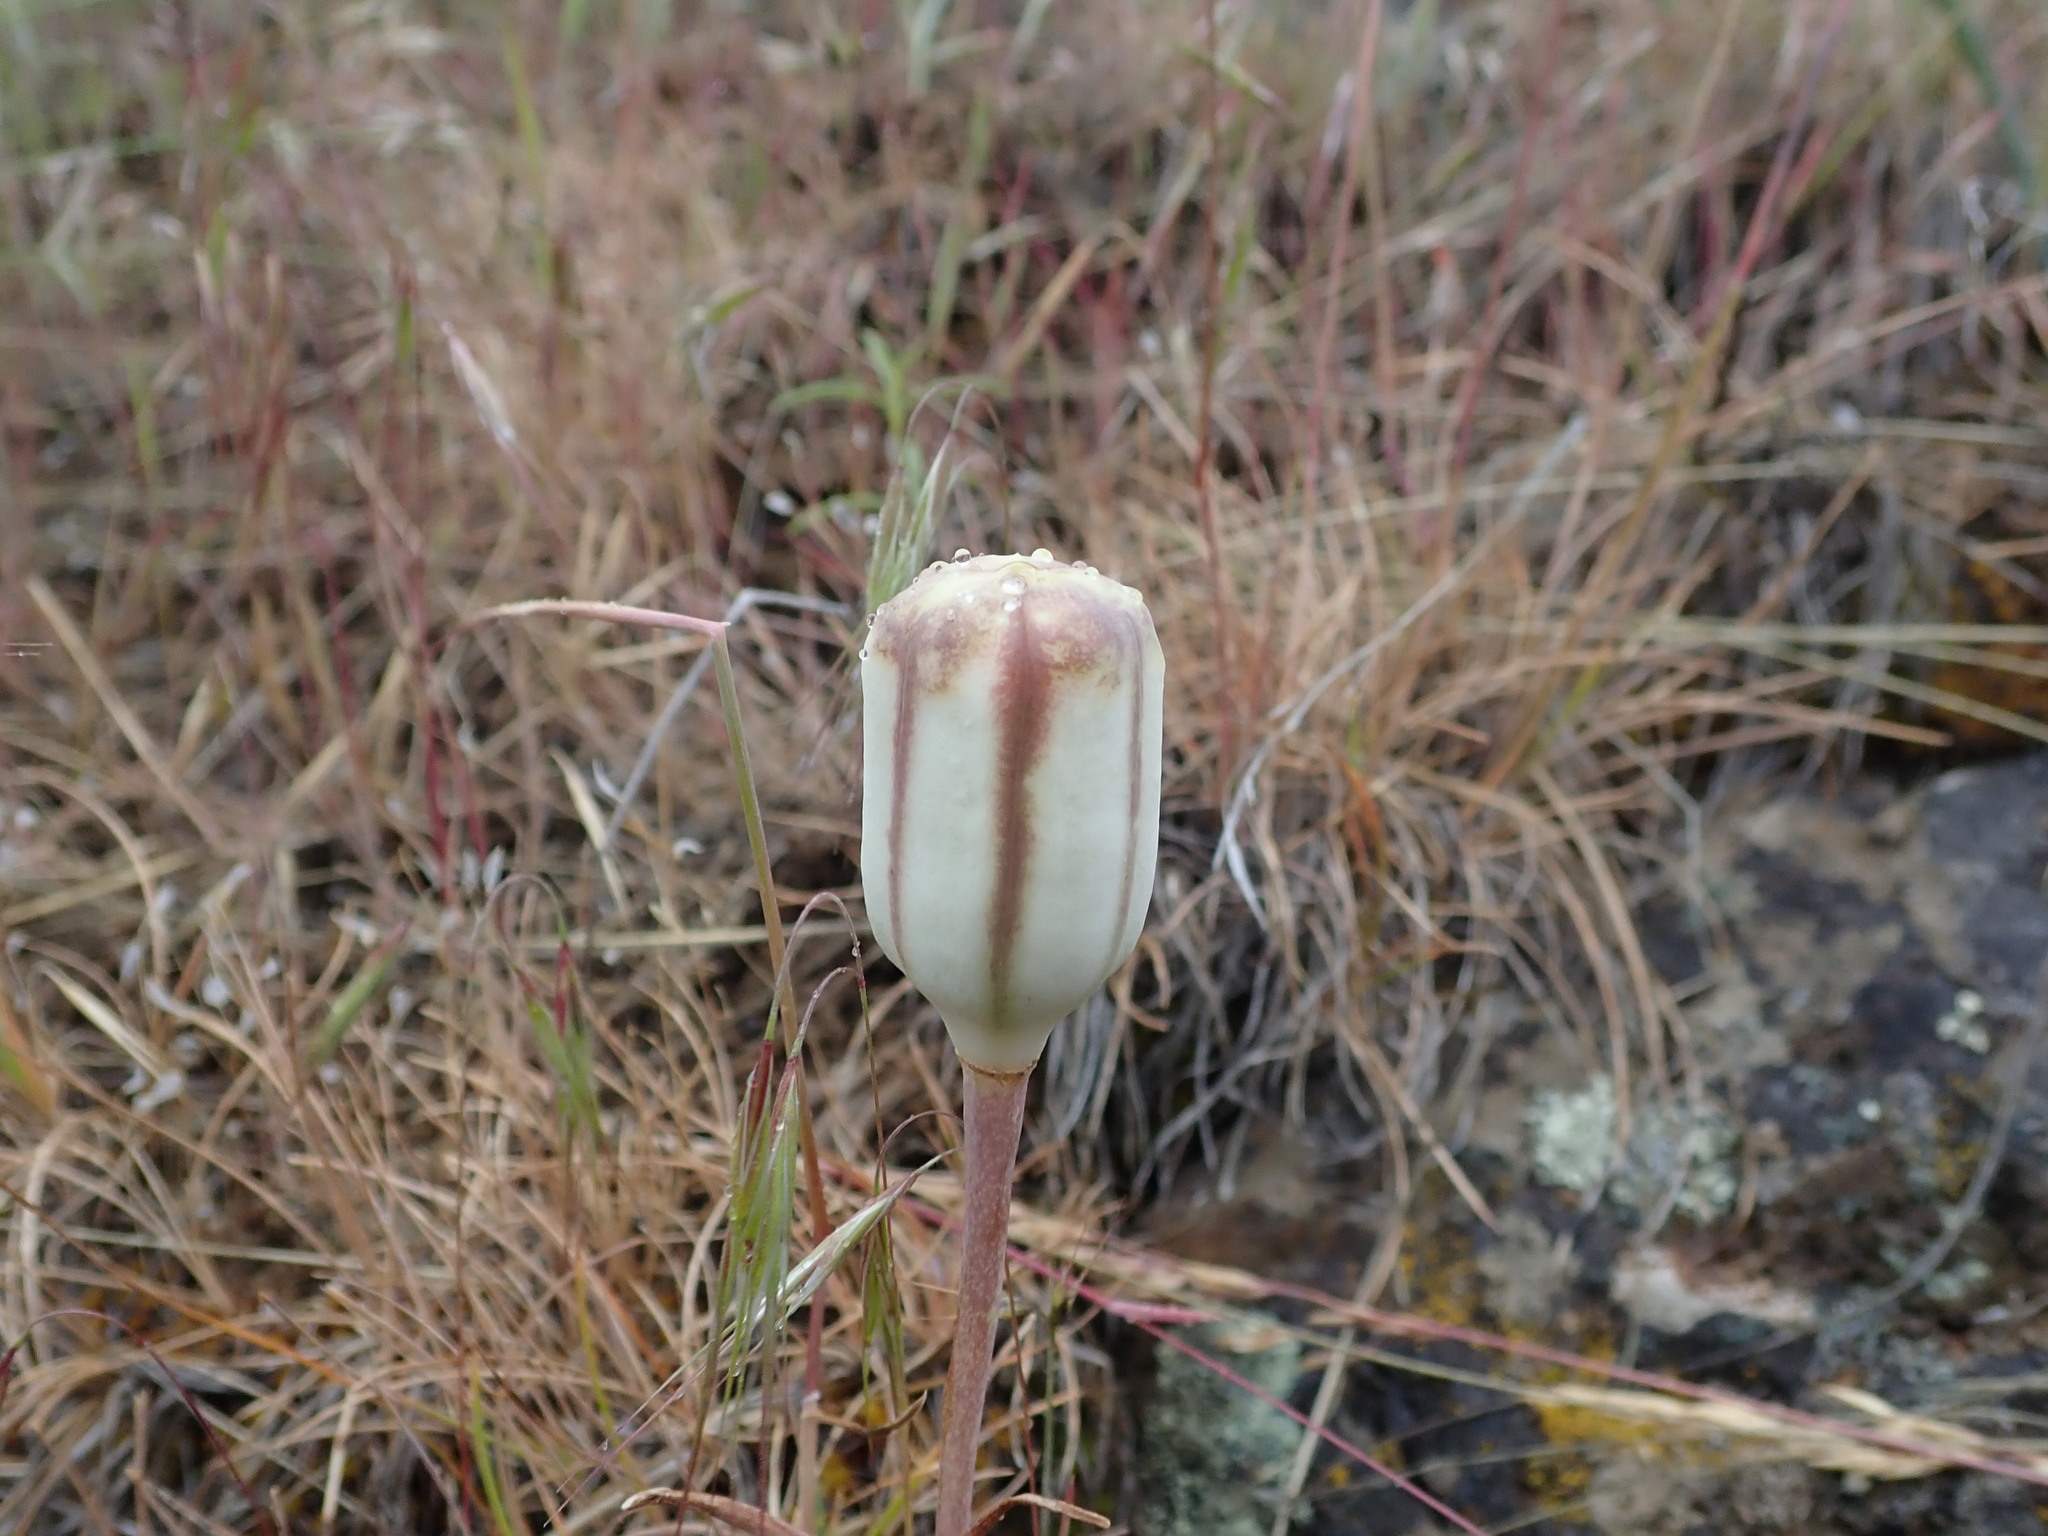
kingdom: Plantae
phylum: Tracheophyta
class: Liliopsida
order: Liliales
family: Liliaceae
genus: Fritillaria
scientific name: Fritillaria pudica
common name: Yellow fritillary
